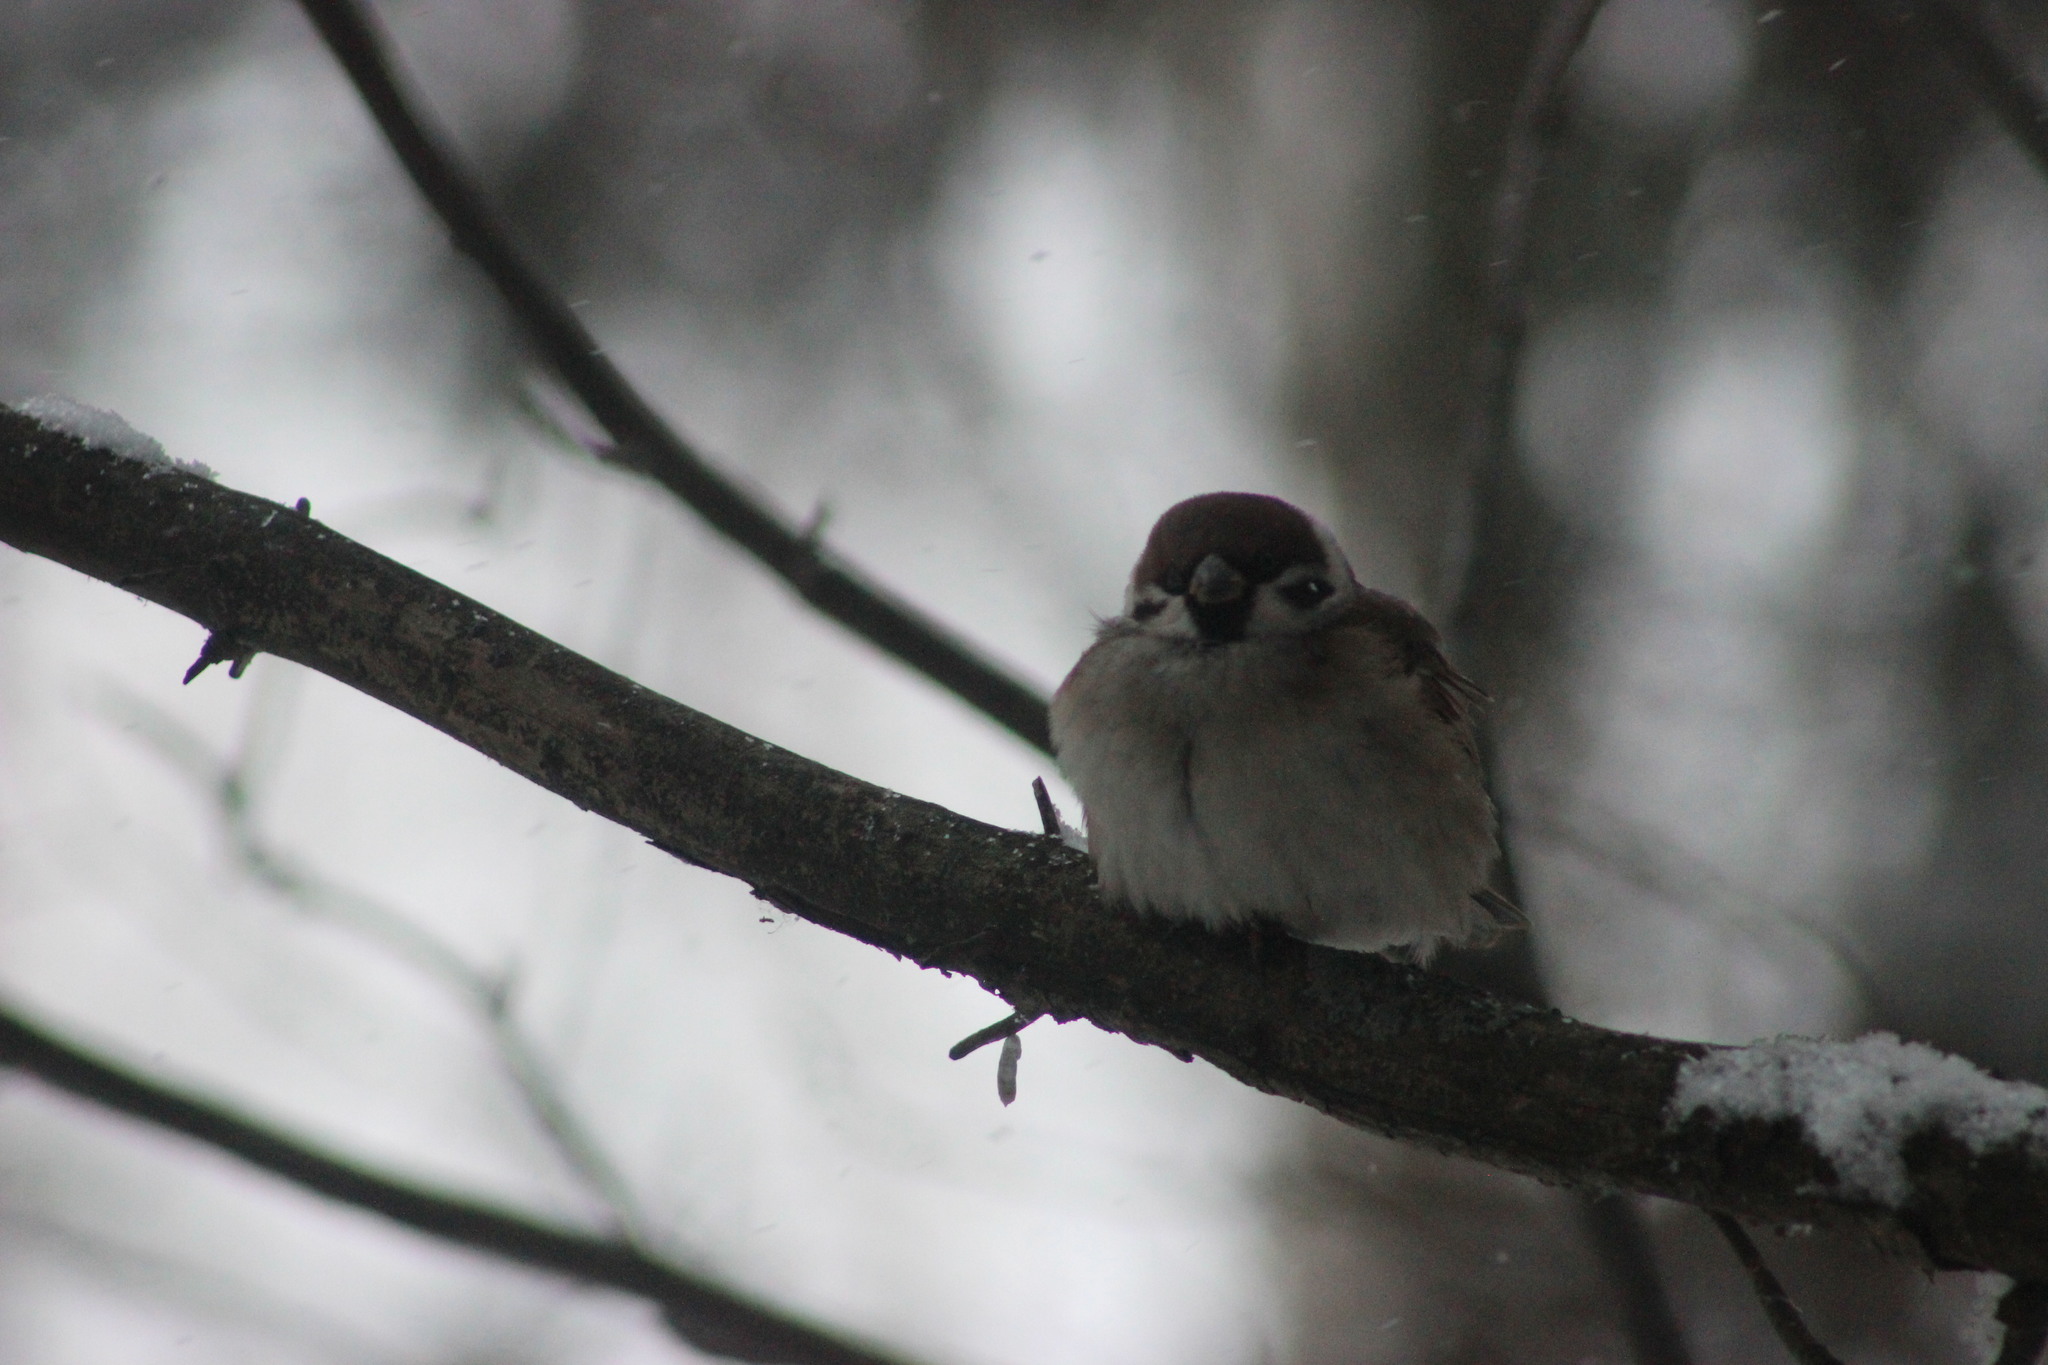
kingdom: Animalia
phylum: Chordata
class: Aves
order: Passeriformes
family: Passeridae
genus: Passer
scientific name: Passer montanus
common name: Eurasian tree sparrow
